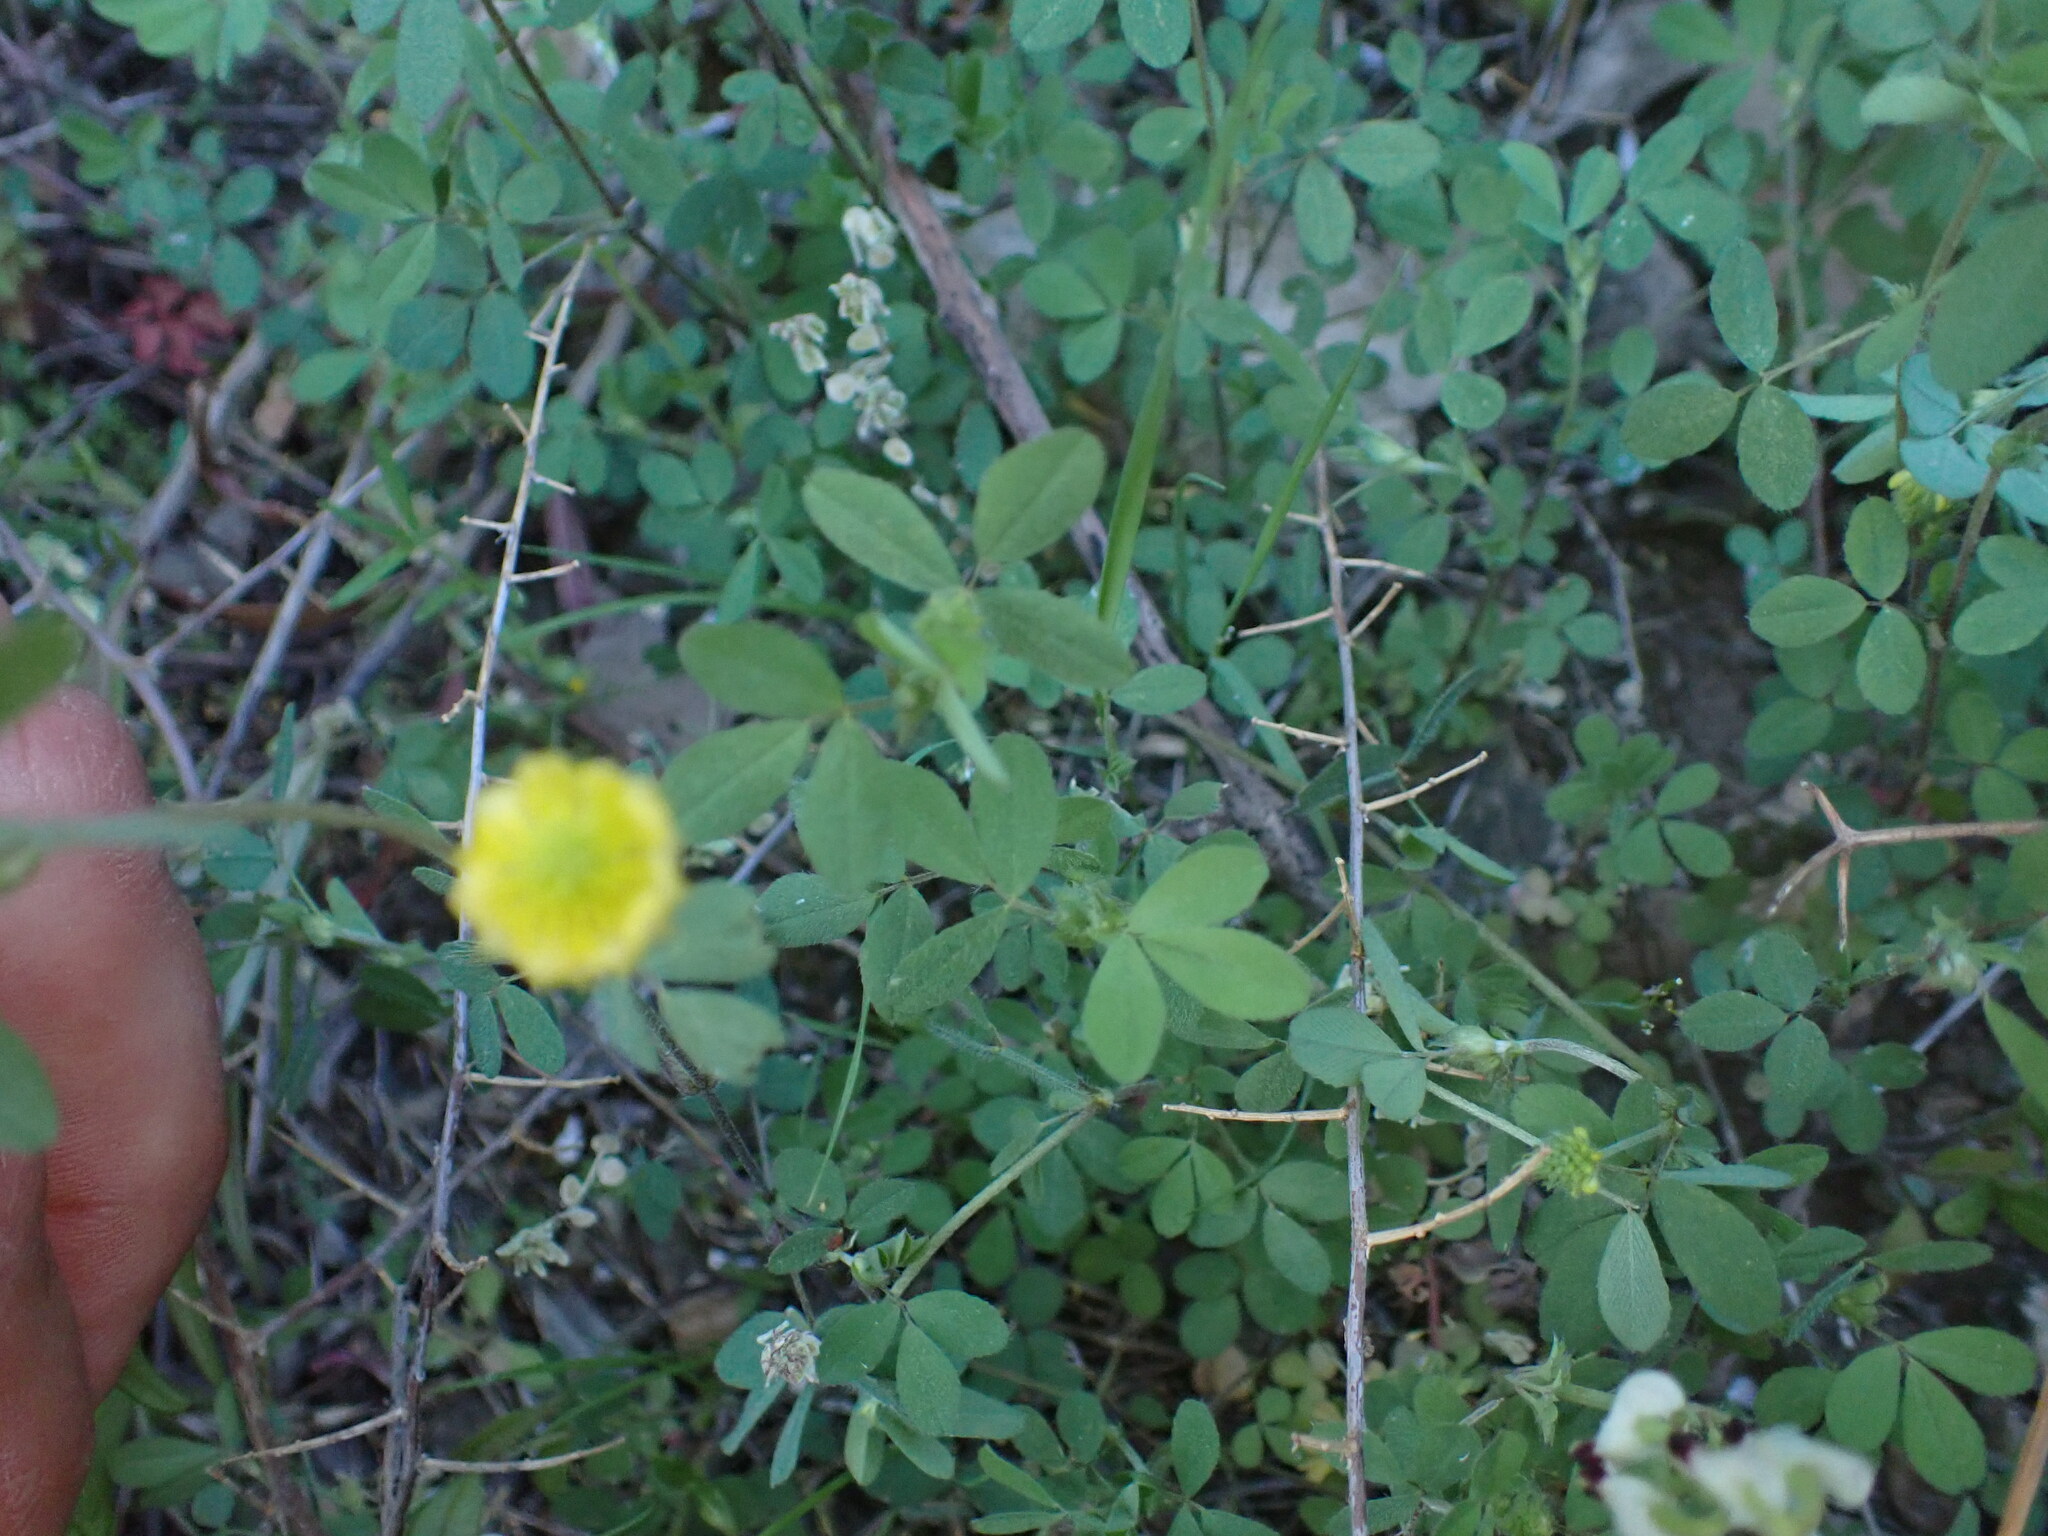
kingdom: Plantae
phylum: Tracheophyta
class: Magnoliopsida
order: Fabales
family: Fabaceae
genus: Trifolium
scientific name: Trifolium campestre
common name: Field clover
